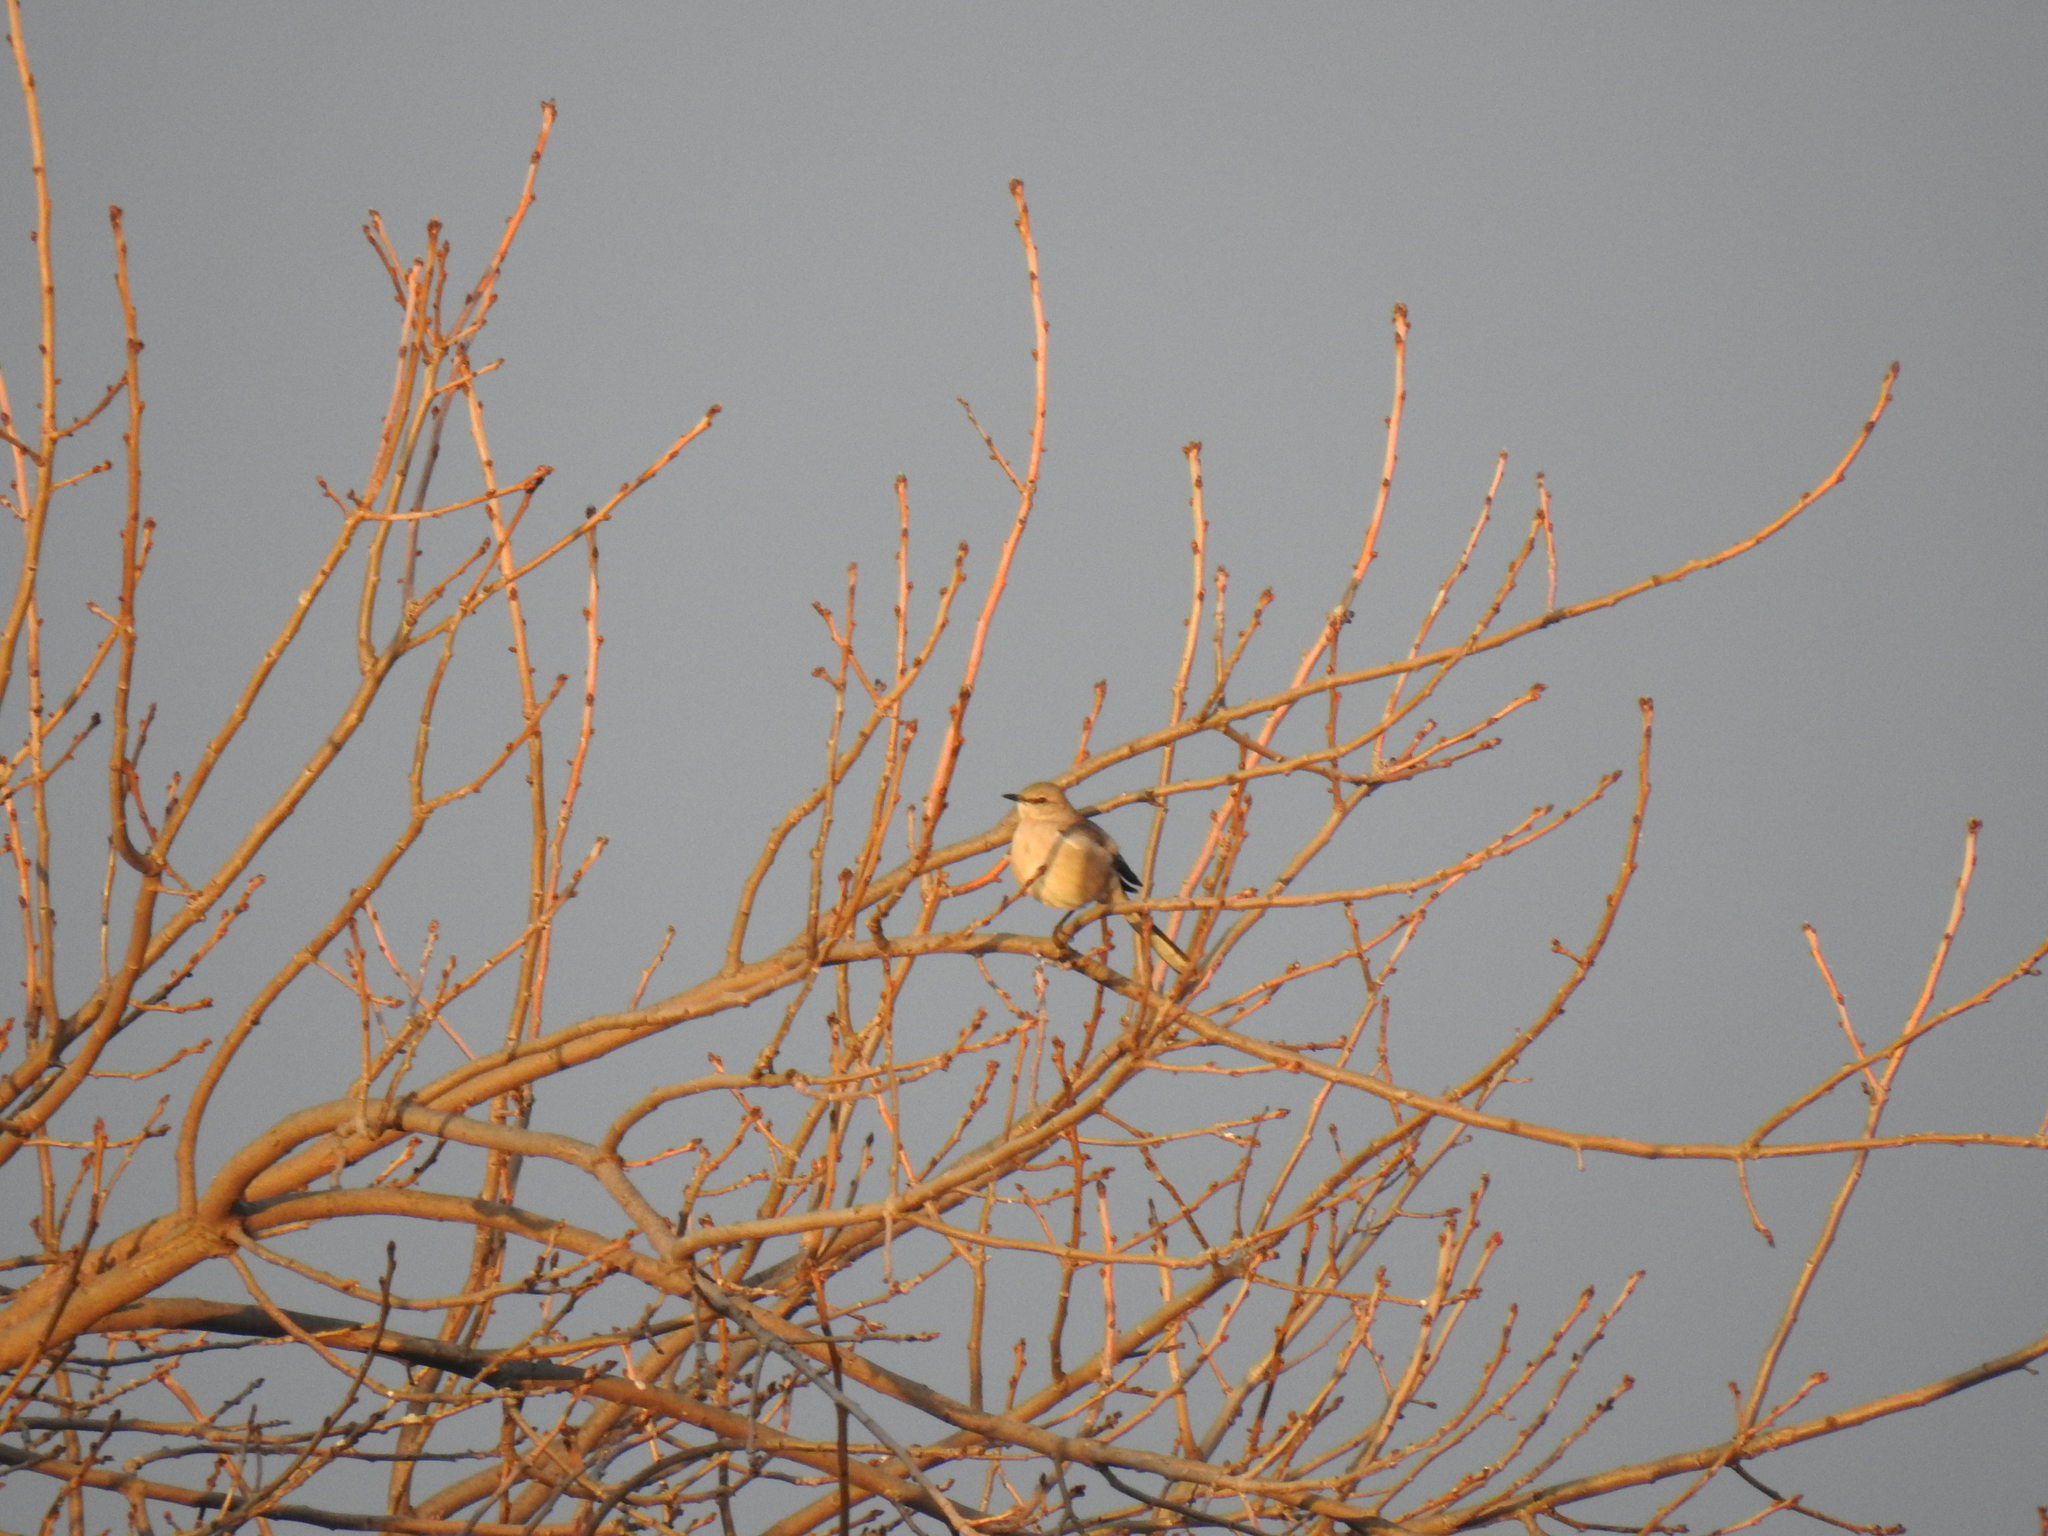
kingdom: Animalia
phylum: Chordata
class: Aves
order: Passeriformes
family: Mimidae
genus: Mimus
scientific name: Mimus polyglottos
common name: Northern mockingbird
